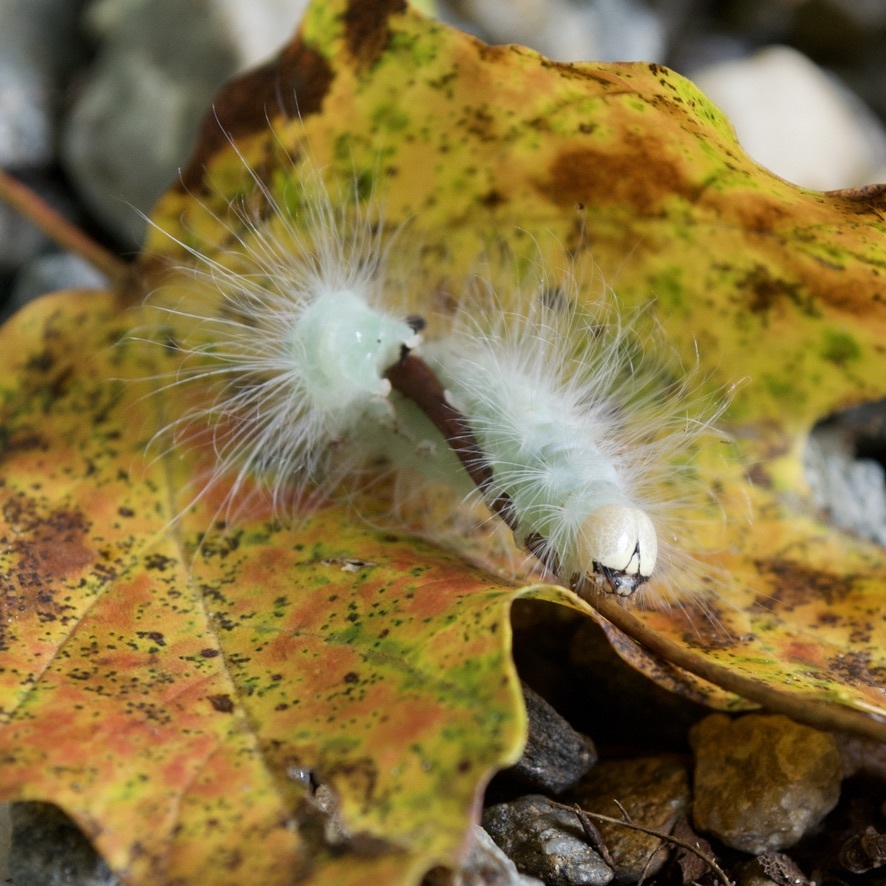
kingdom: Animalia
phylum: Arthropoda
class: Insecta
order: Lepidoptera
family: Noctuidae
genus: Charadra
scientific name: Charadra deridens
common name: Marbled tuffet
